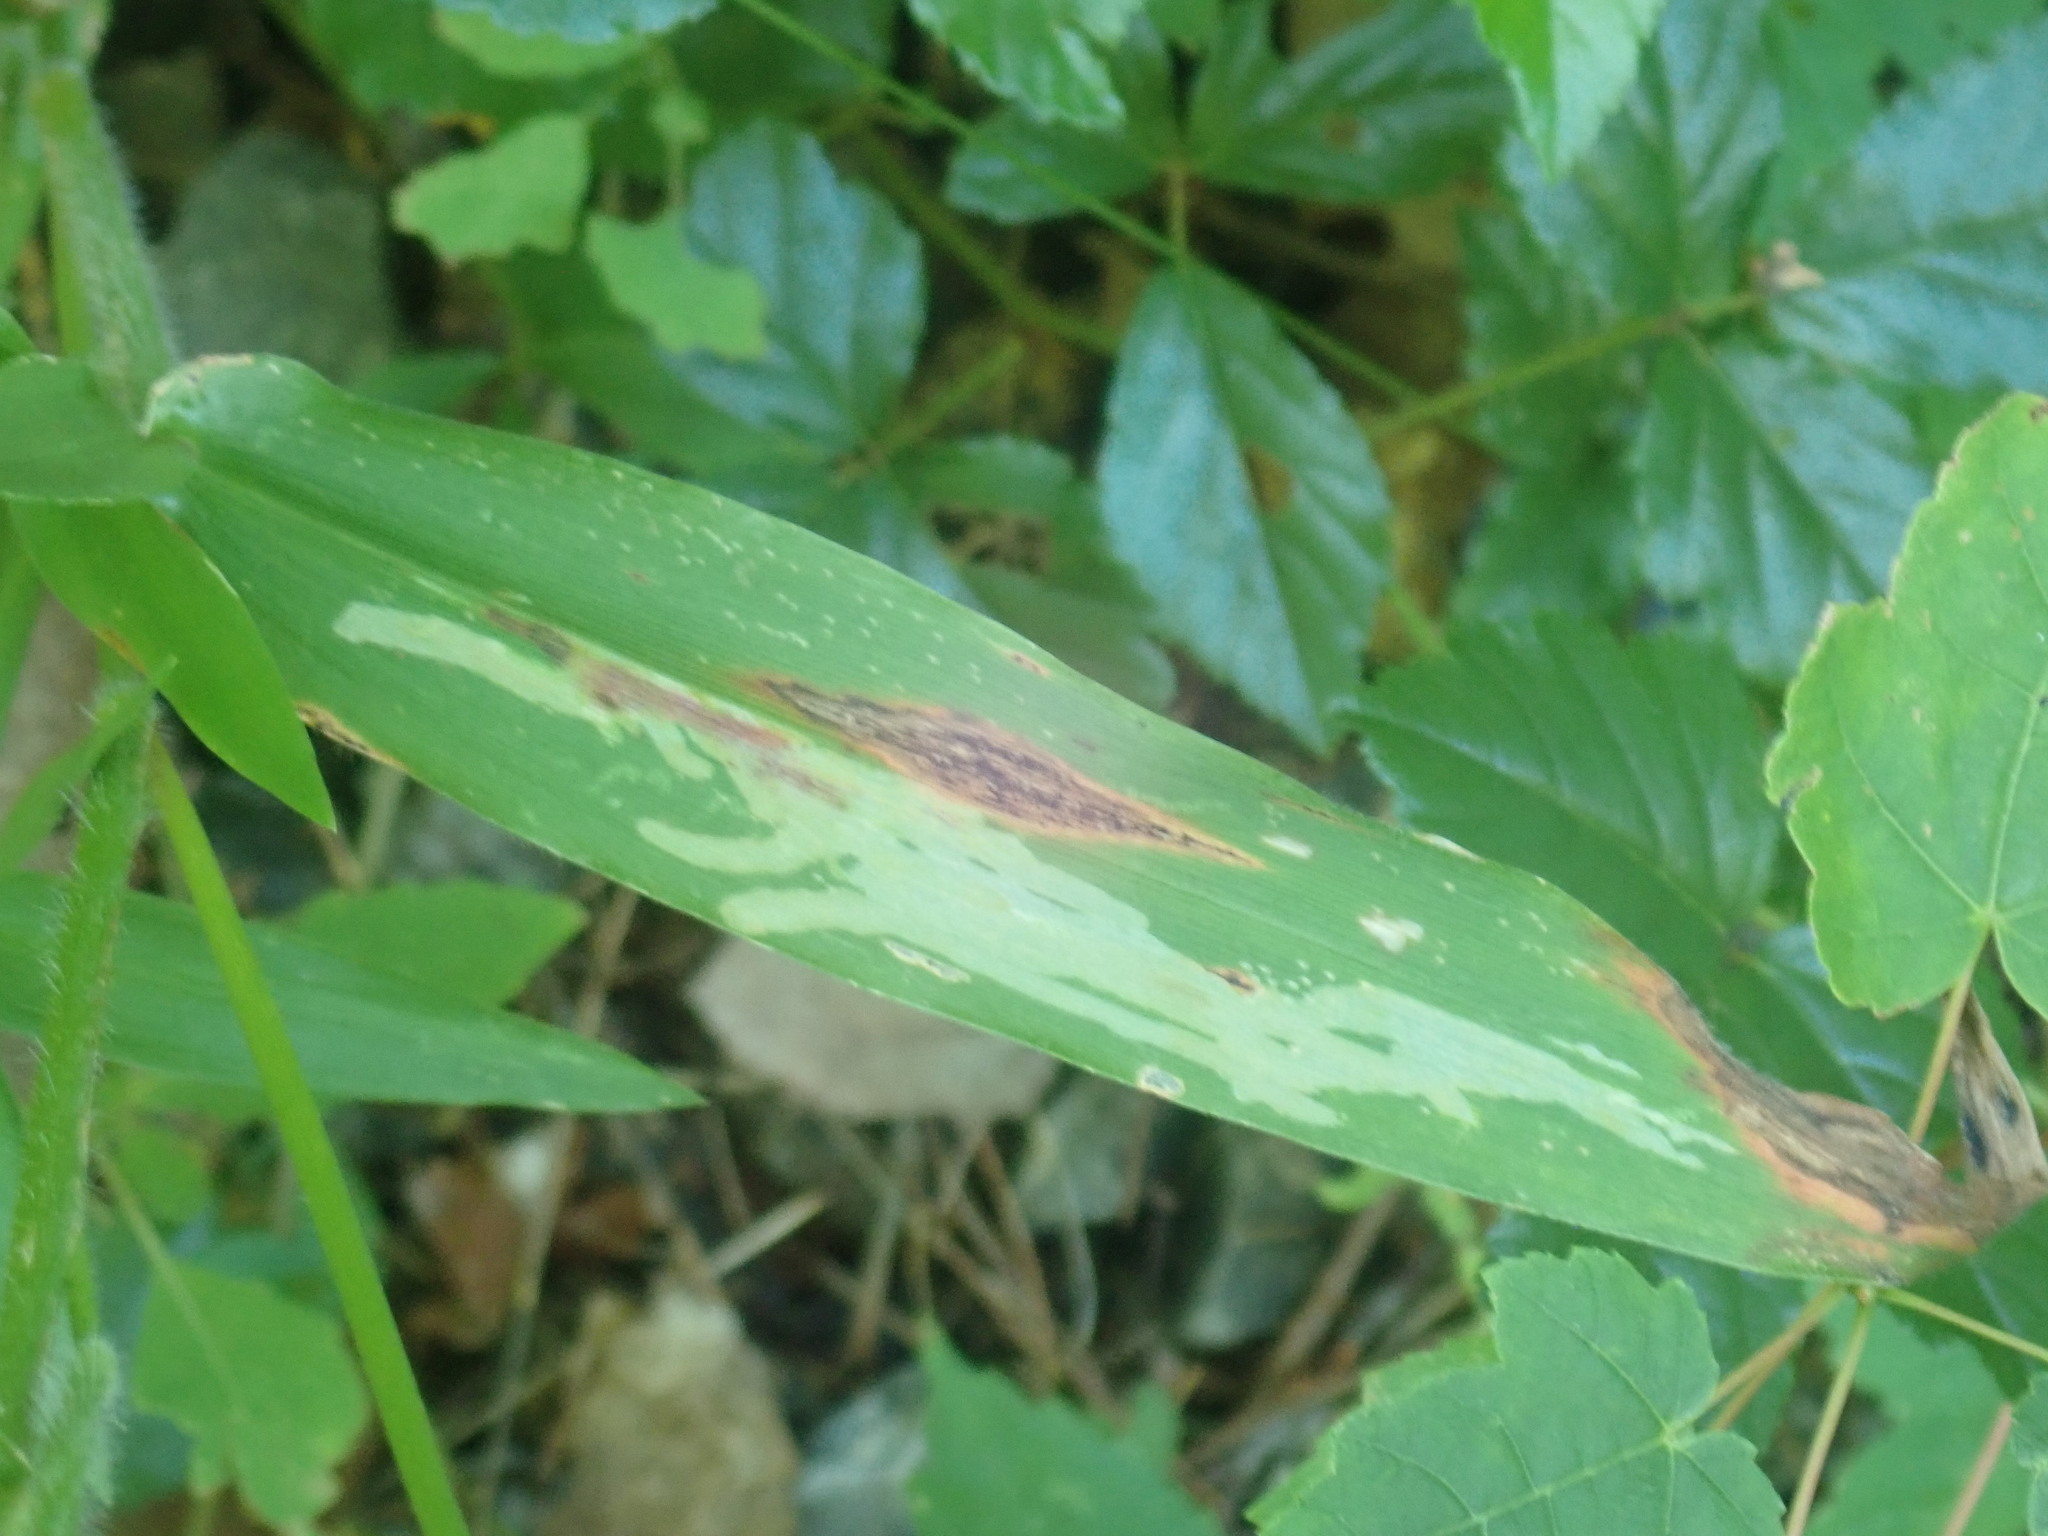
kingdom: Animalia
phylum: Arthropoda
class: Insecta
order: Diptera
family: Agromyzidae
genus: Cerodontha
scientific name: Cerodontha angulata
